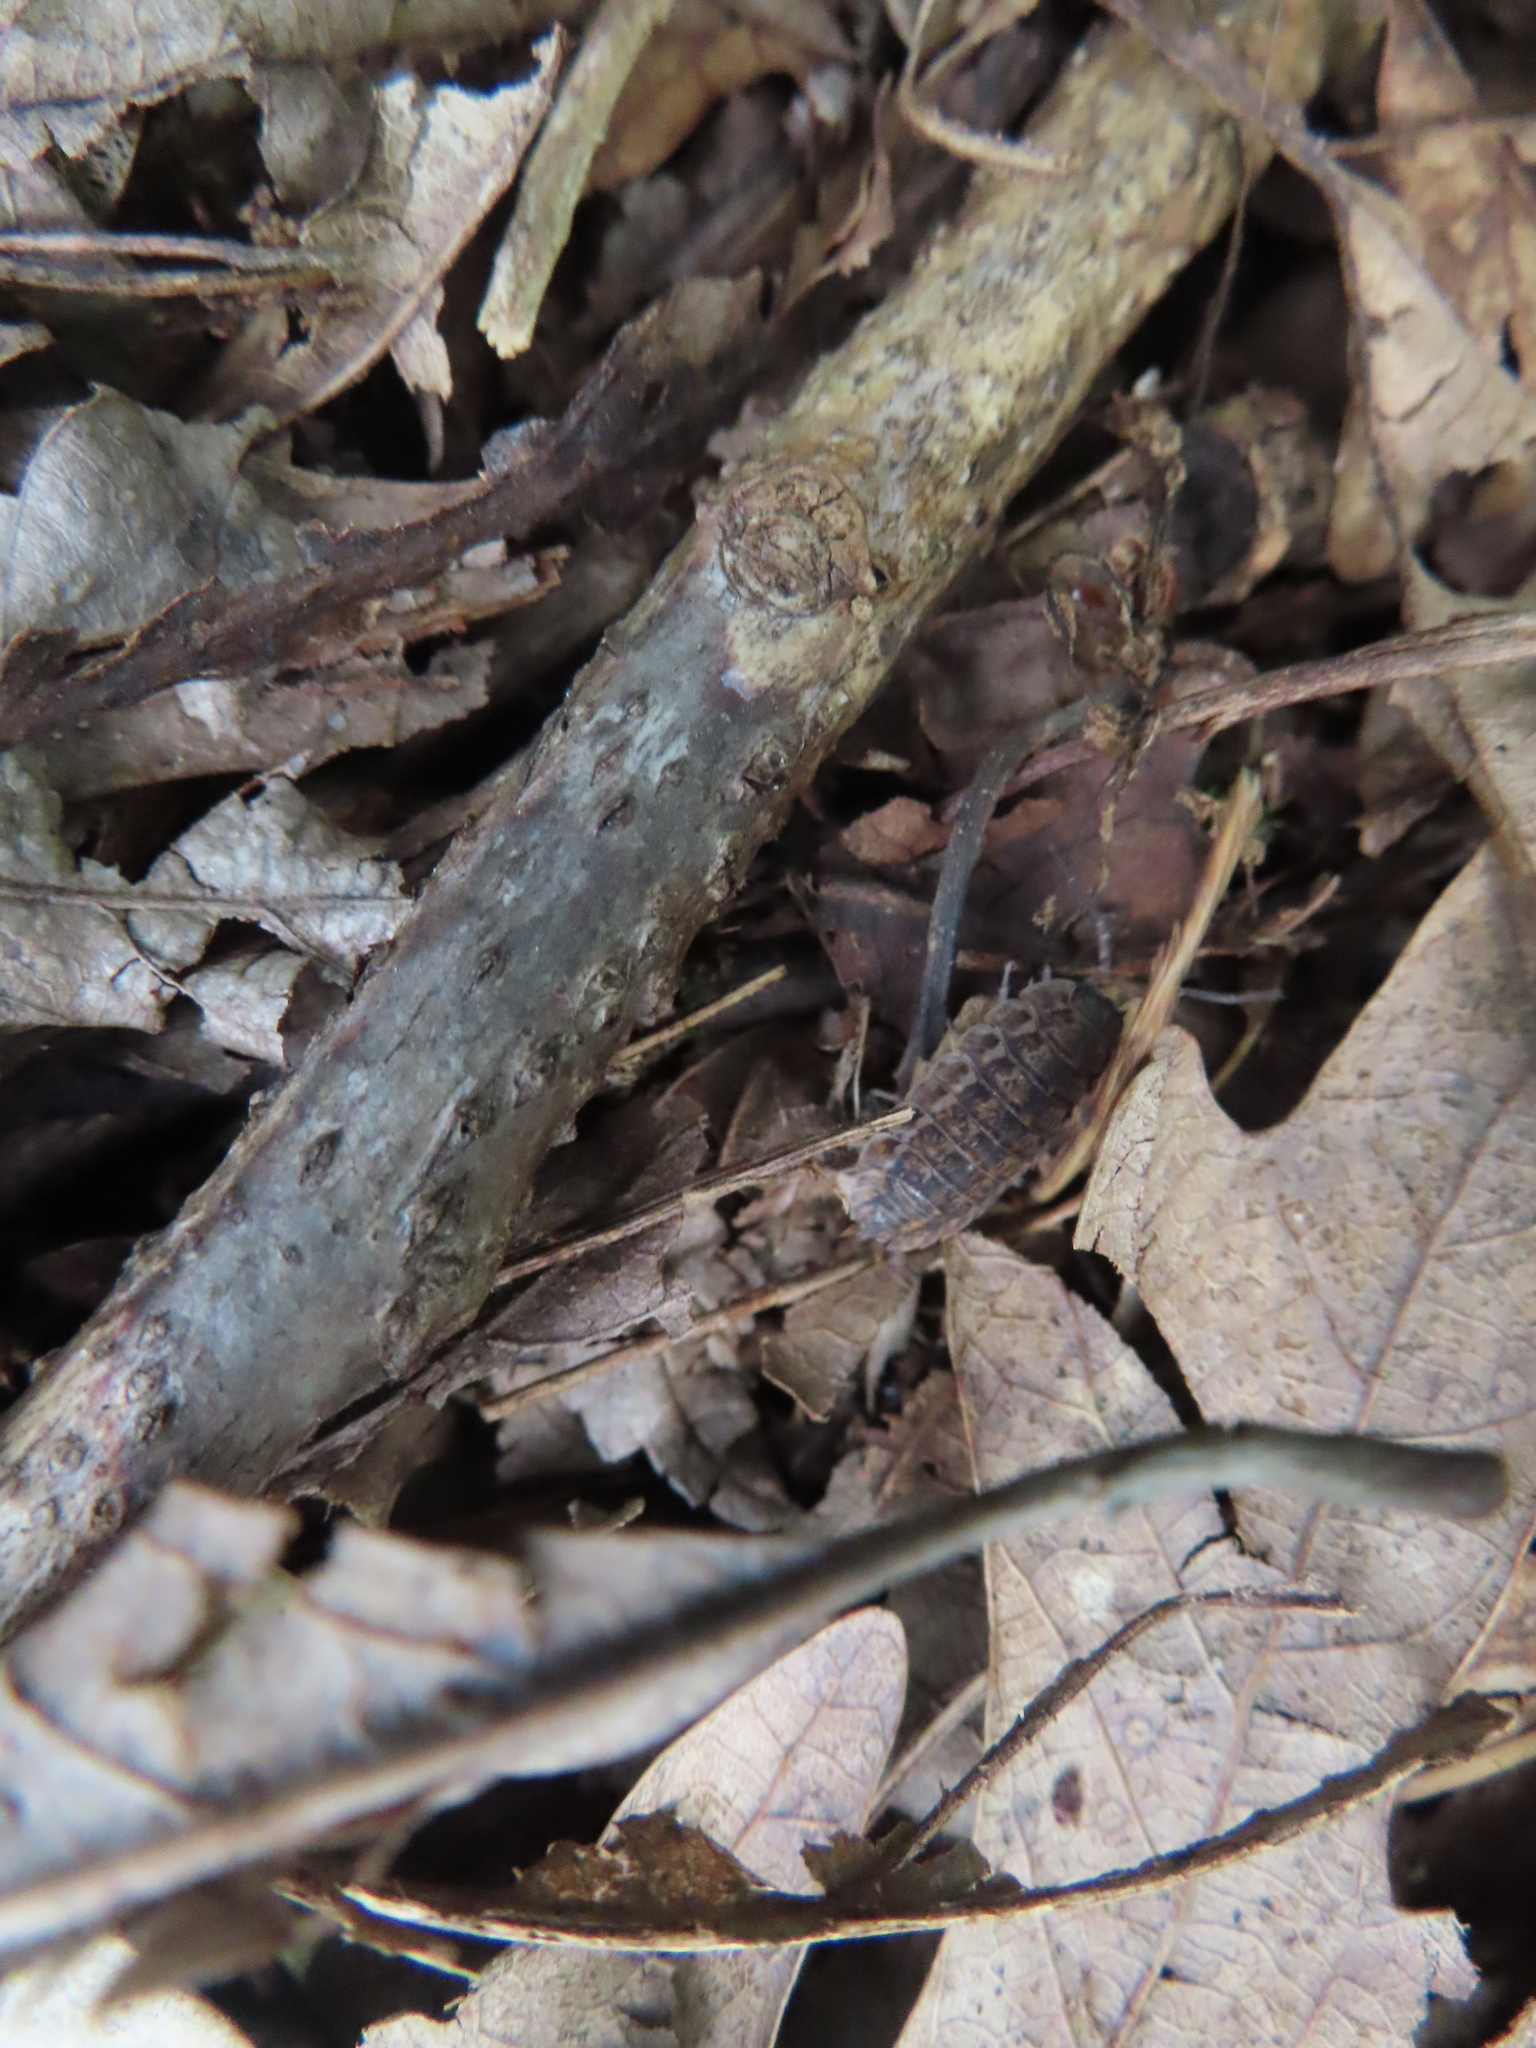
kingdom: Animalia
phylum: Arthropoda
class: Malacostraca
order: Isopoda
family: Trachelipodidae
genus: Trachelipus
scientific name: Trachelipus rathkii
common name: Isopod
